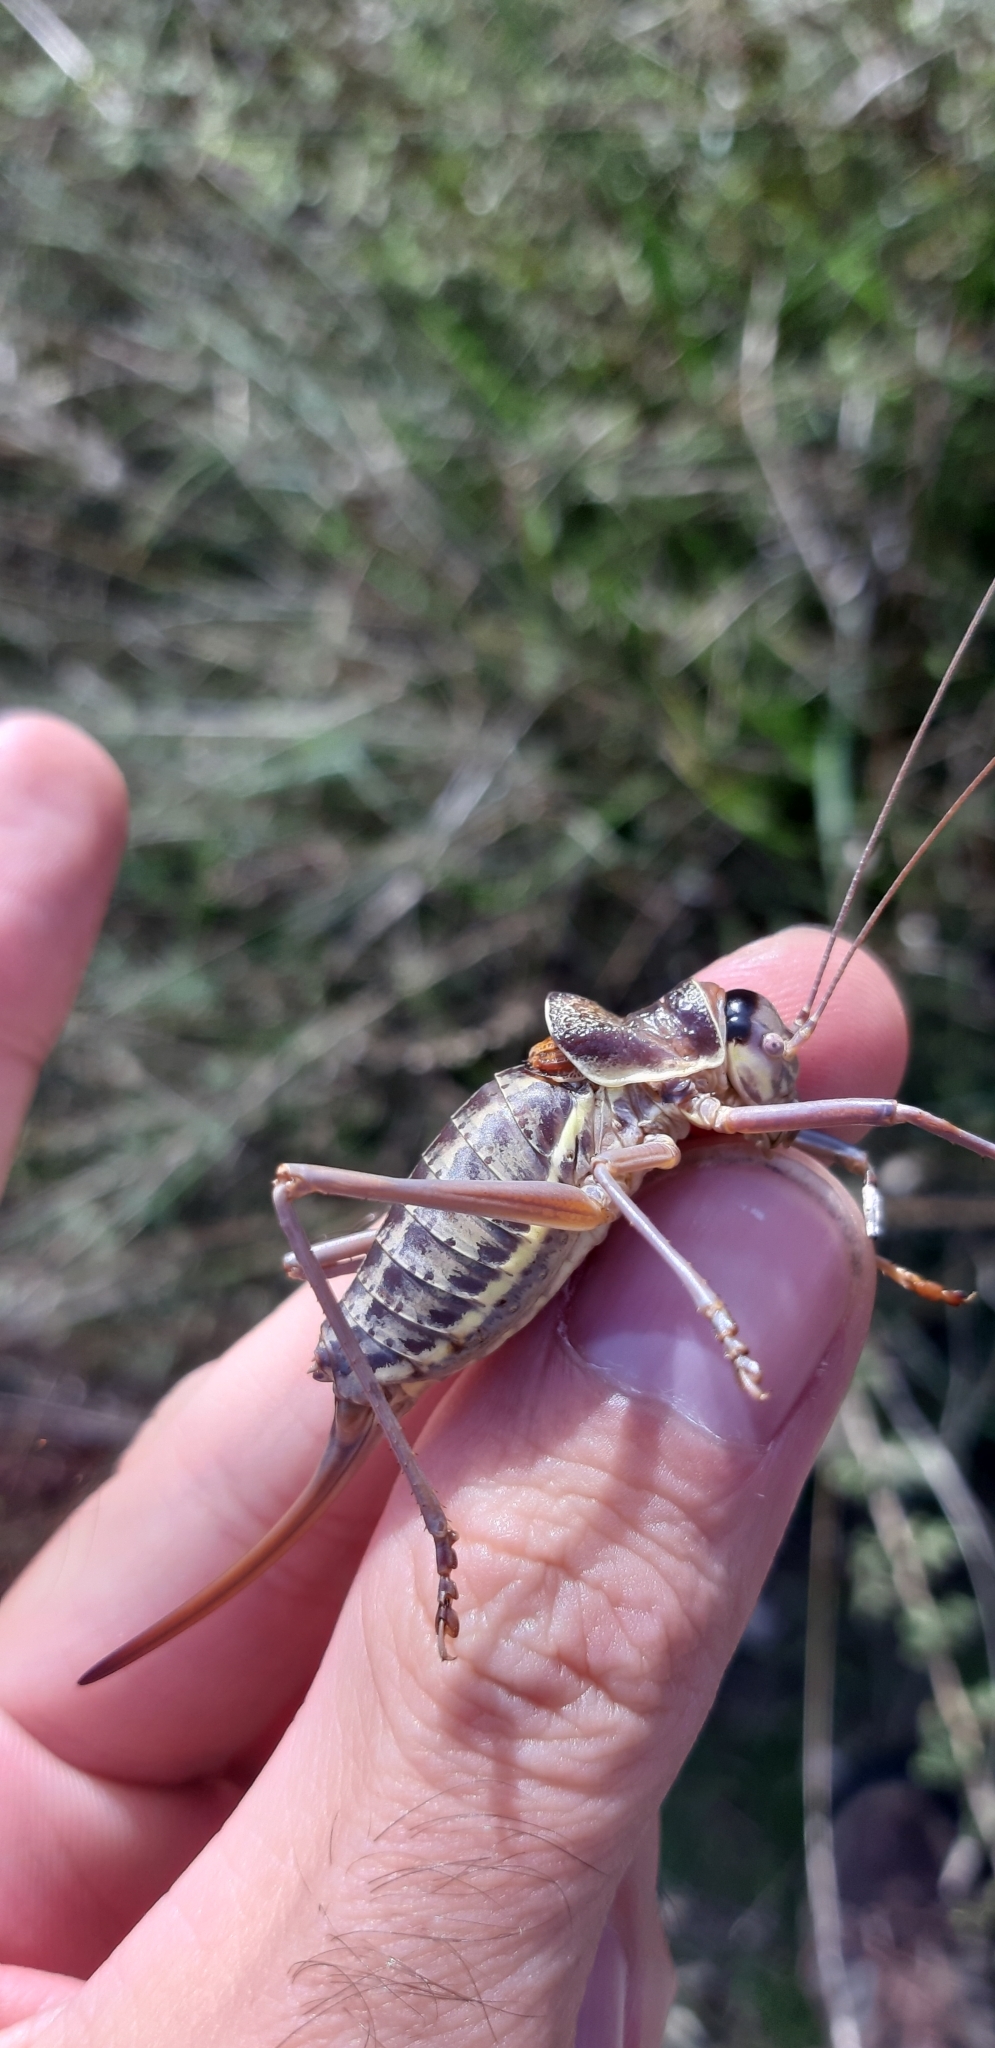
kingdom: Animalia
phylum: Arthropoda
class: Insecta
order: Orthoptera
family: Tettigoniidae
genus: Ephippiger
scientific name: Ephippiger melisi
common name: Abruzzo saddle bush-cricket
